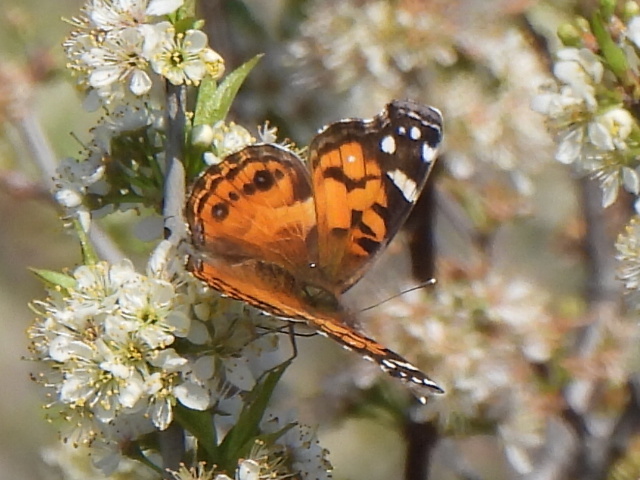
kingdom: Animalia
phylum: Arthropoda
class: Insecta
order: Lepidoptera
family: Nymphalidae
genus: Vanessa
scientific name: Vanessa virginiensis
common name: American lady
